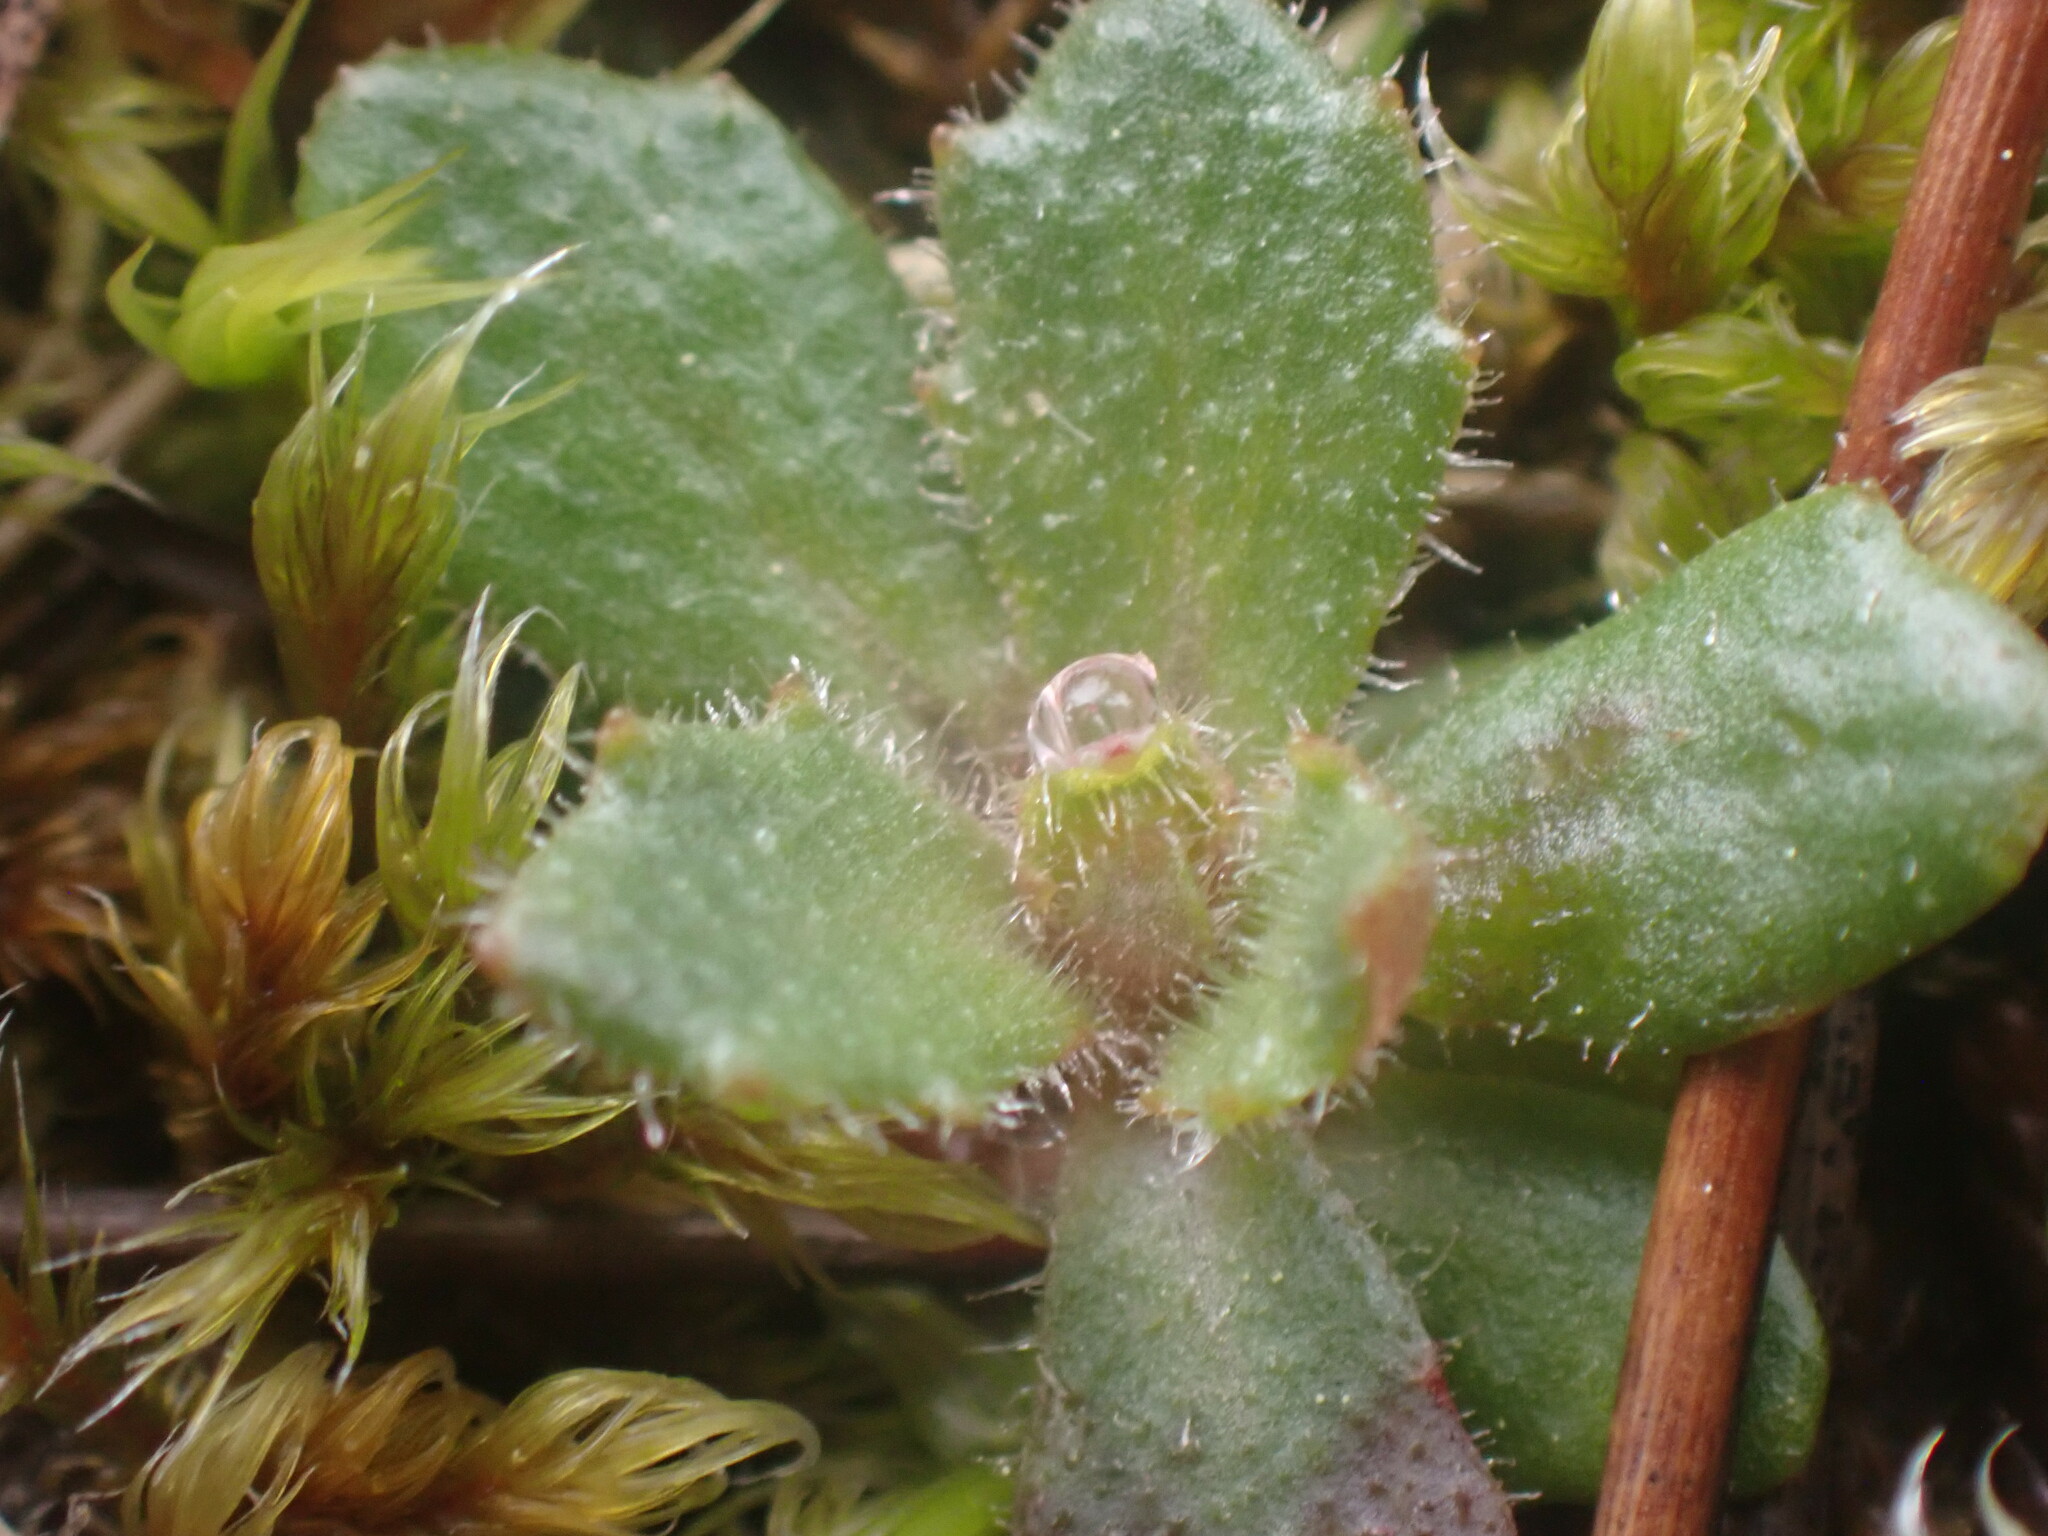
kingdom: Plantae
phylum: Tracheophyta
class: Magnoliopsida
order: Saxifragales
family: Saxifragaceae
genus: Micranthes
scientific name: Micranthes ferruginea
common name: Rusty saxifrage
